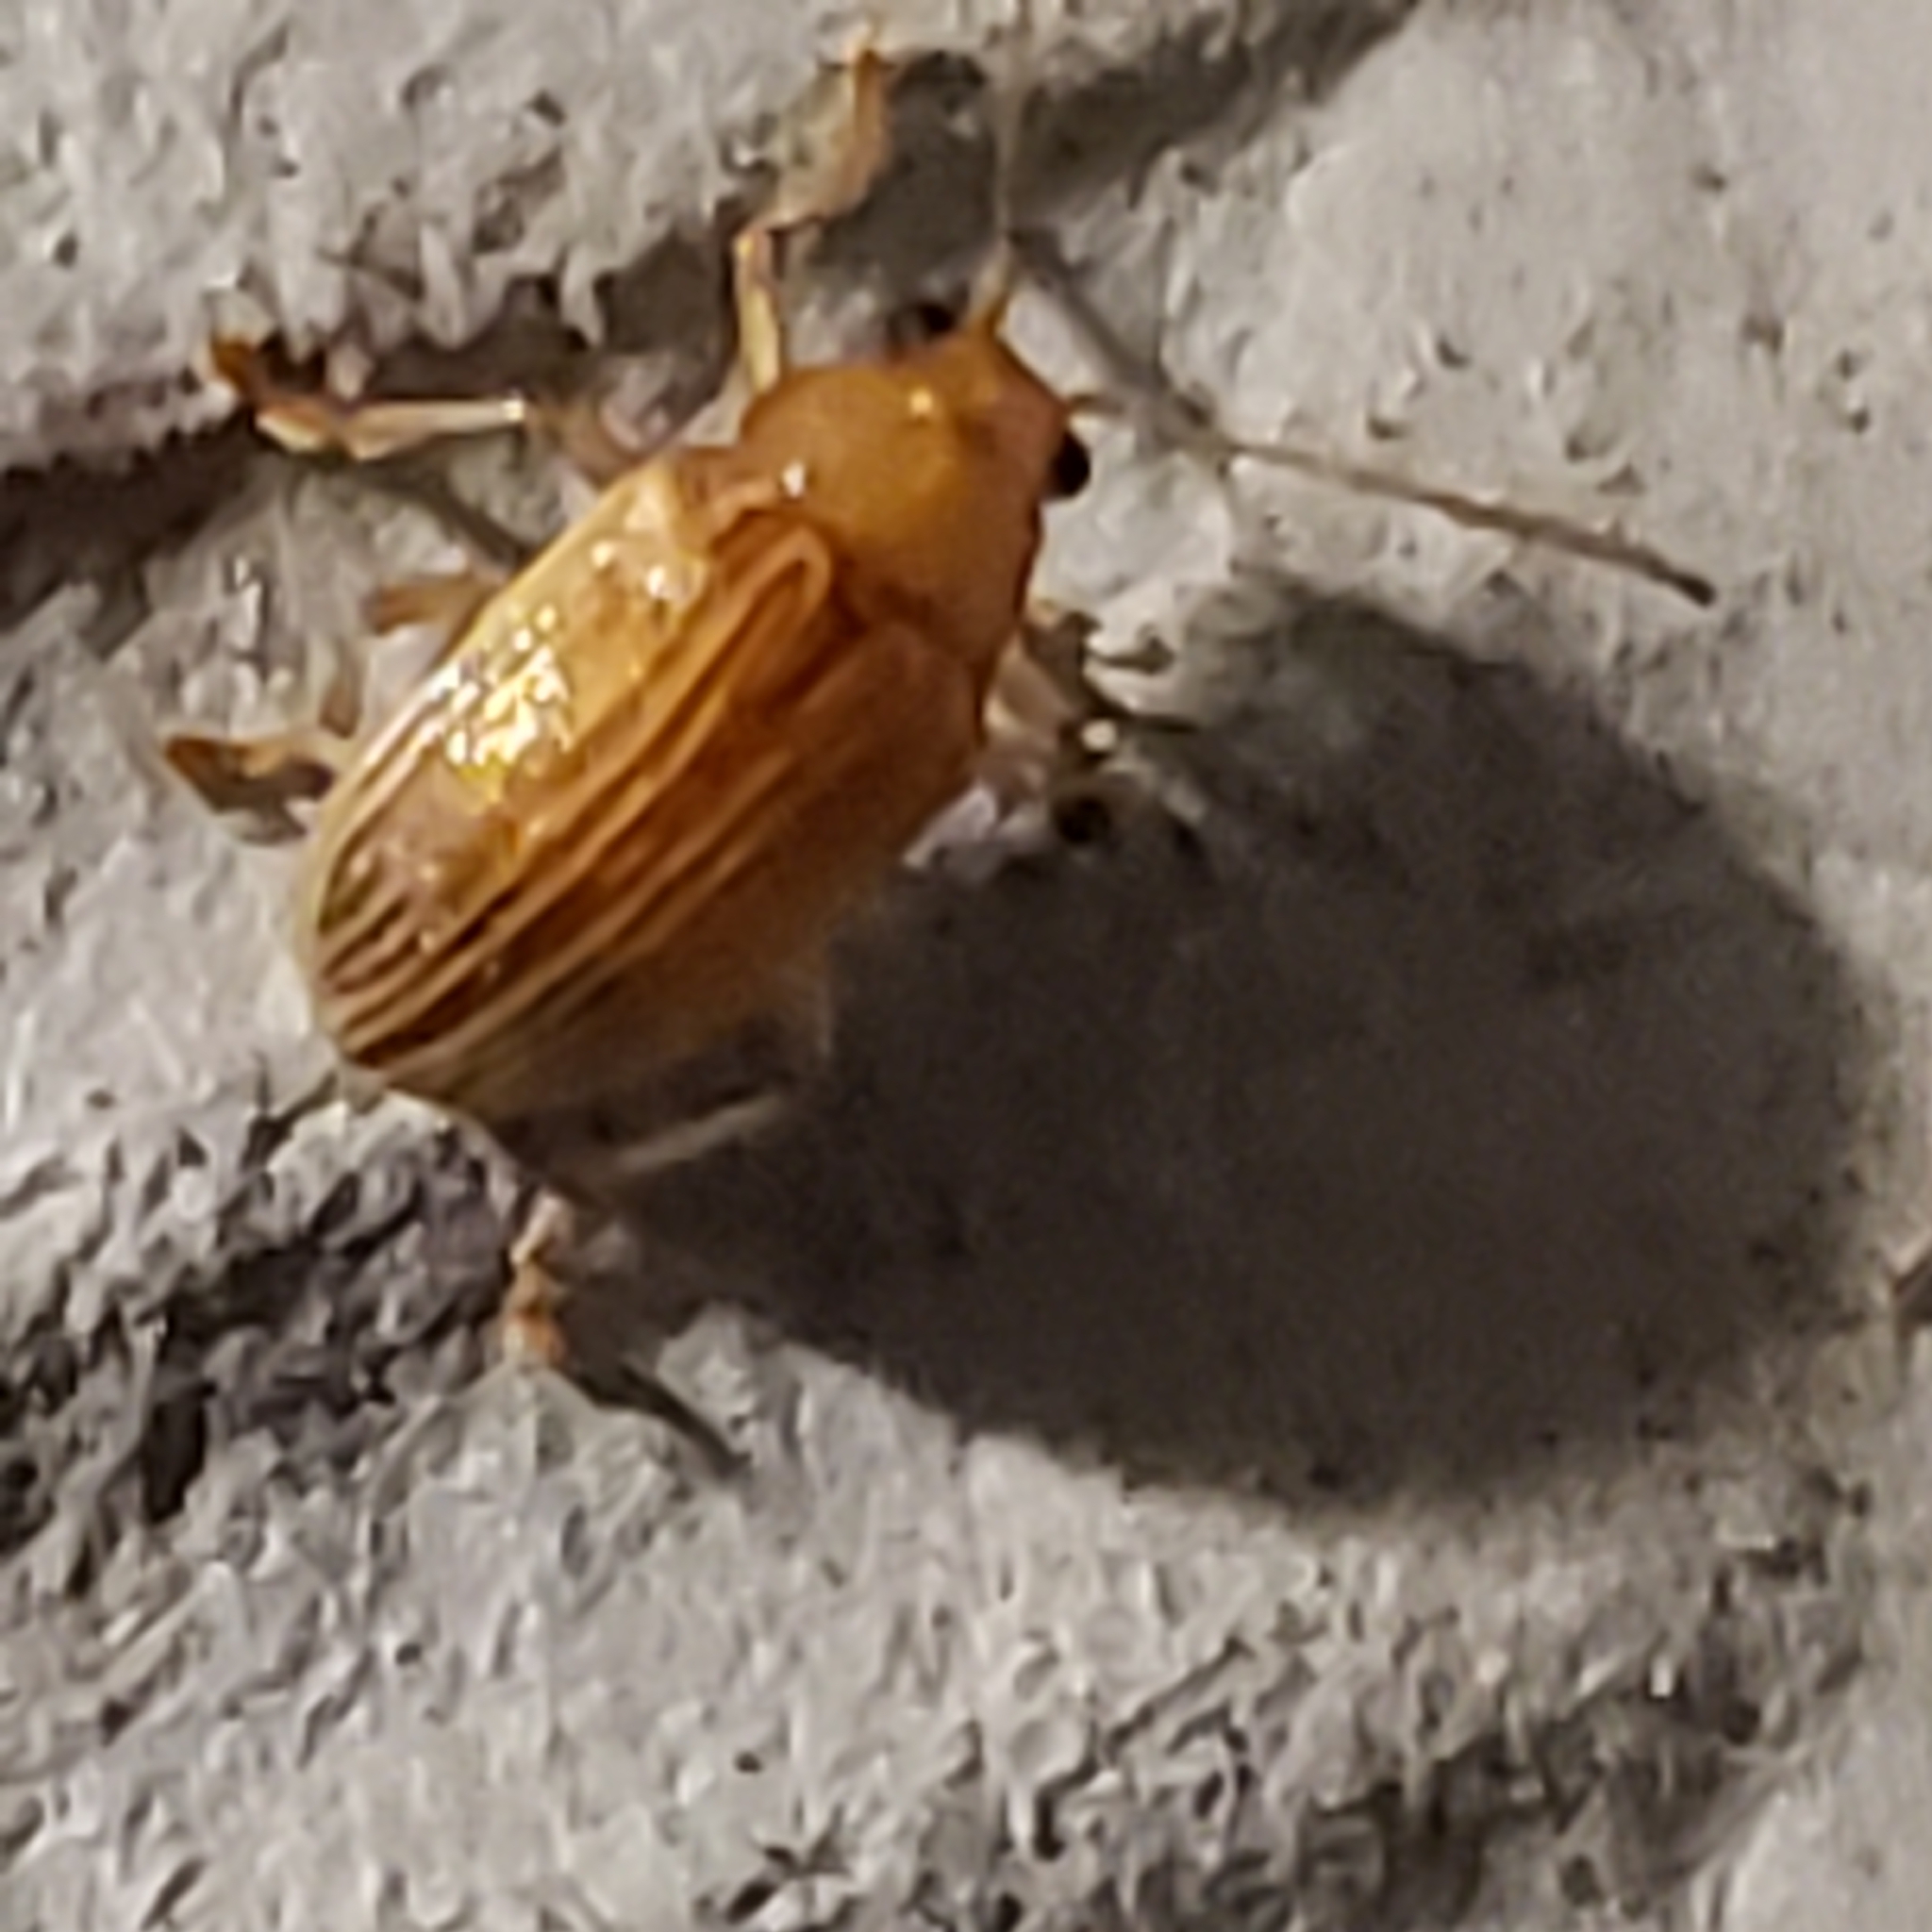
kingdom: Animalia
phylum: Arthropoda
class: Insecta
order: Coleoptera
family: Chrysomelidae
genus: Colaspis
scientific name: Colaspis brunnea
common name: Grape colaspis
